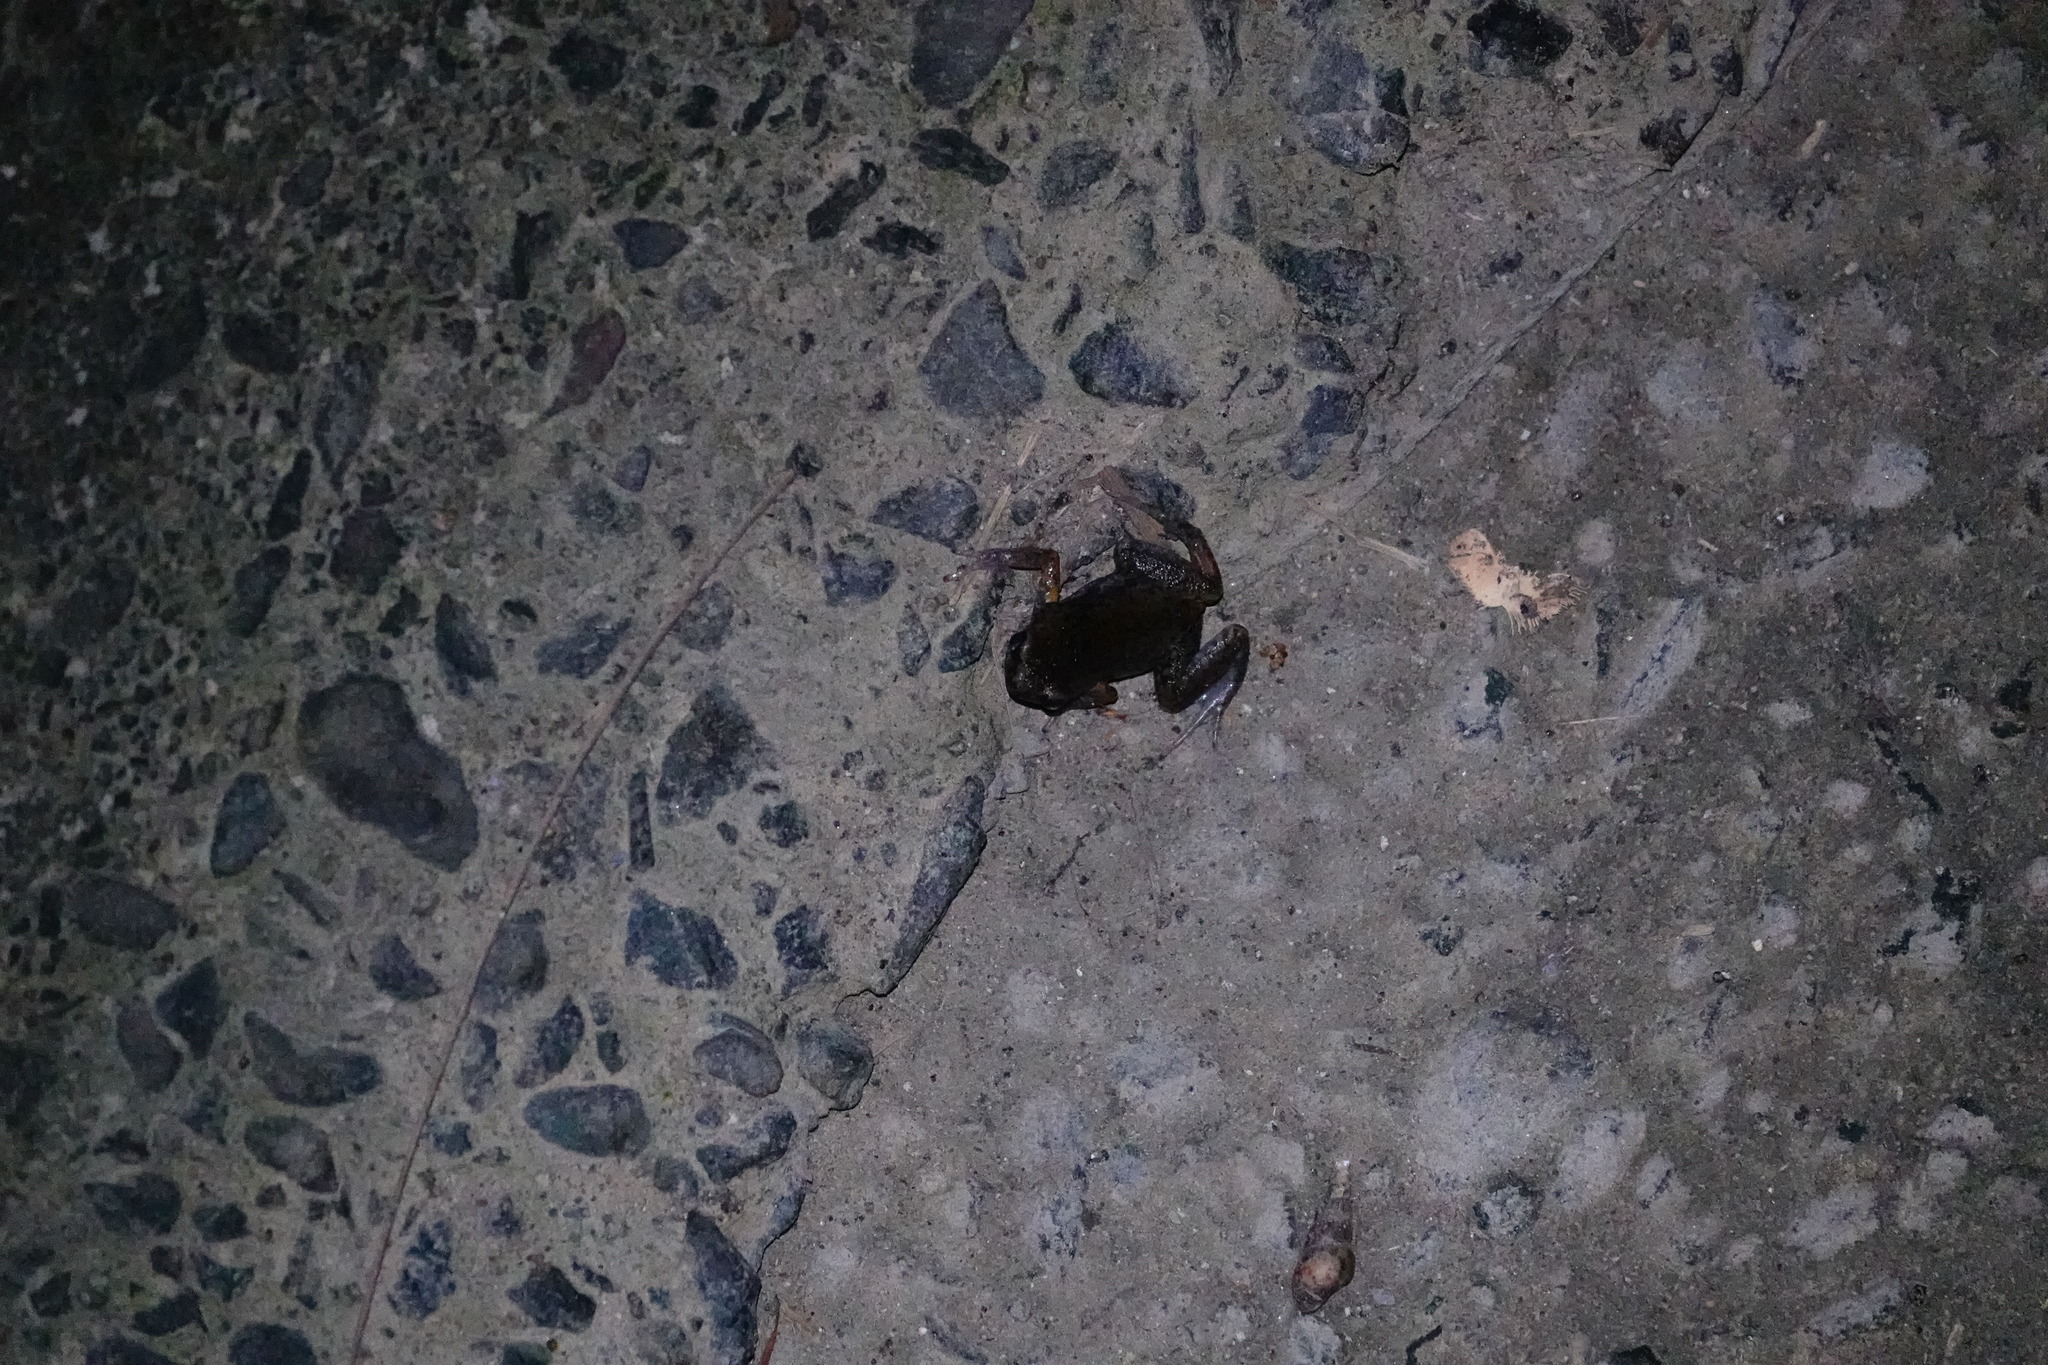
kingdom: Animalia
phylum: Chordata
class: Amphibia
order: Anura
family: Microhylidae
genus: Micryletta
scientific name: Micryletta steinegeri
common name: Stejneger's paddy frog
